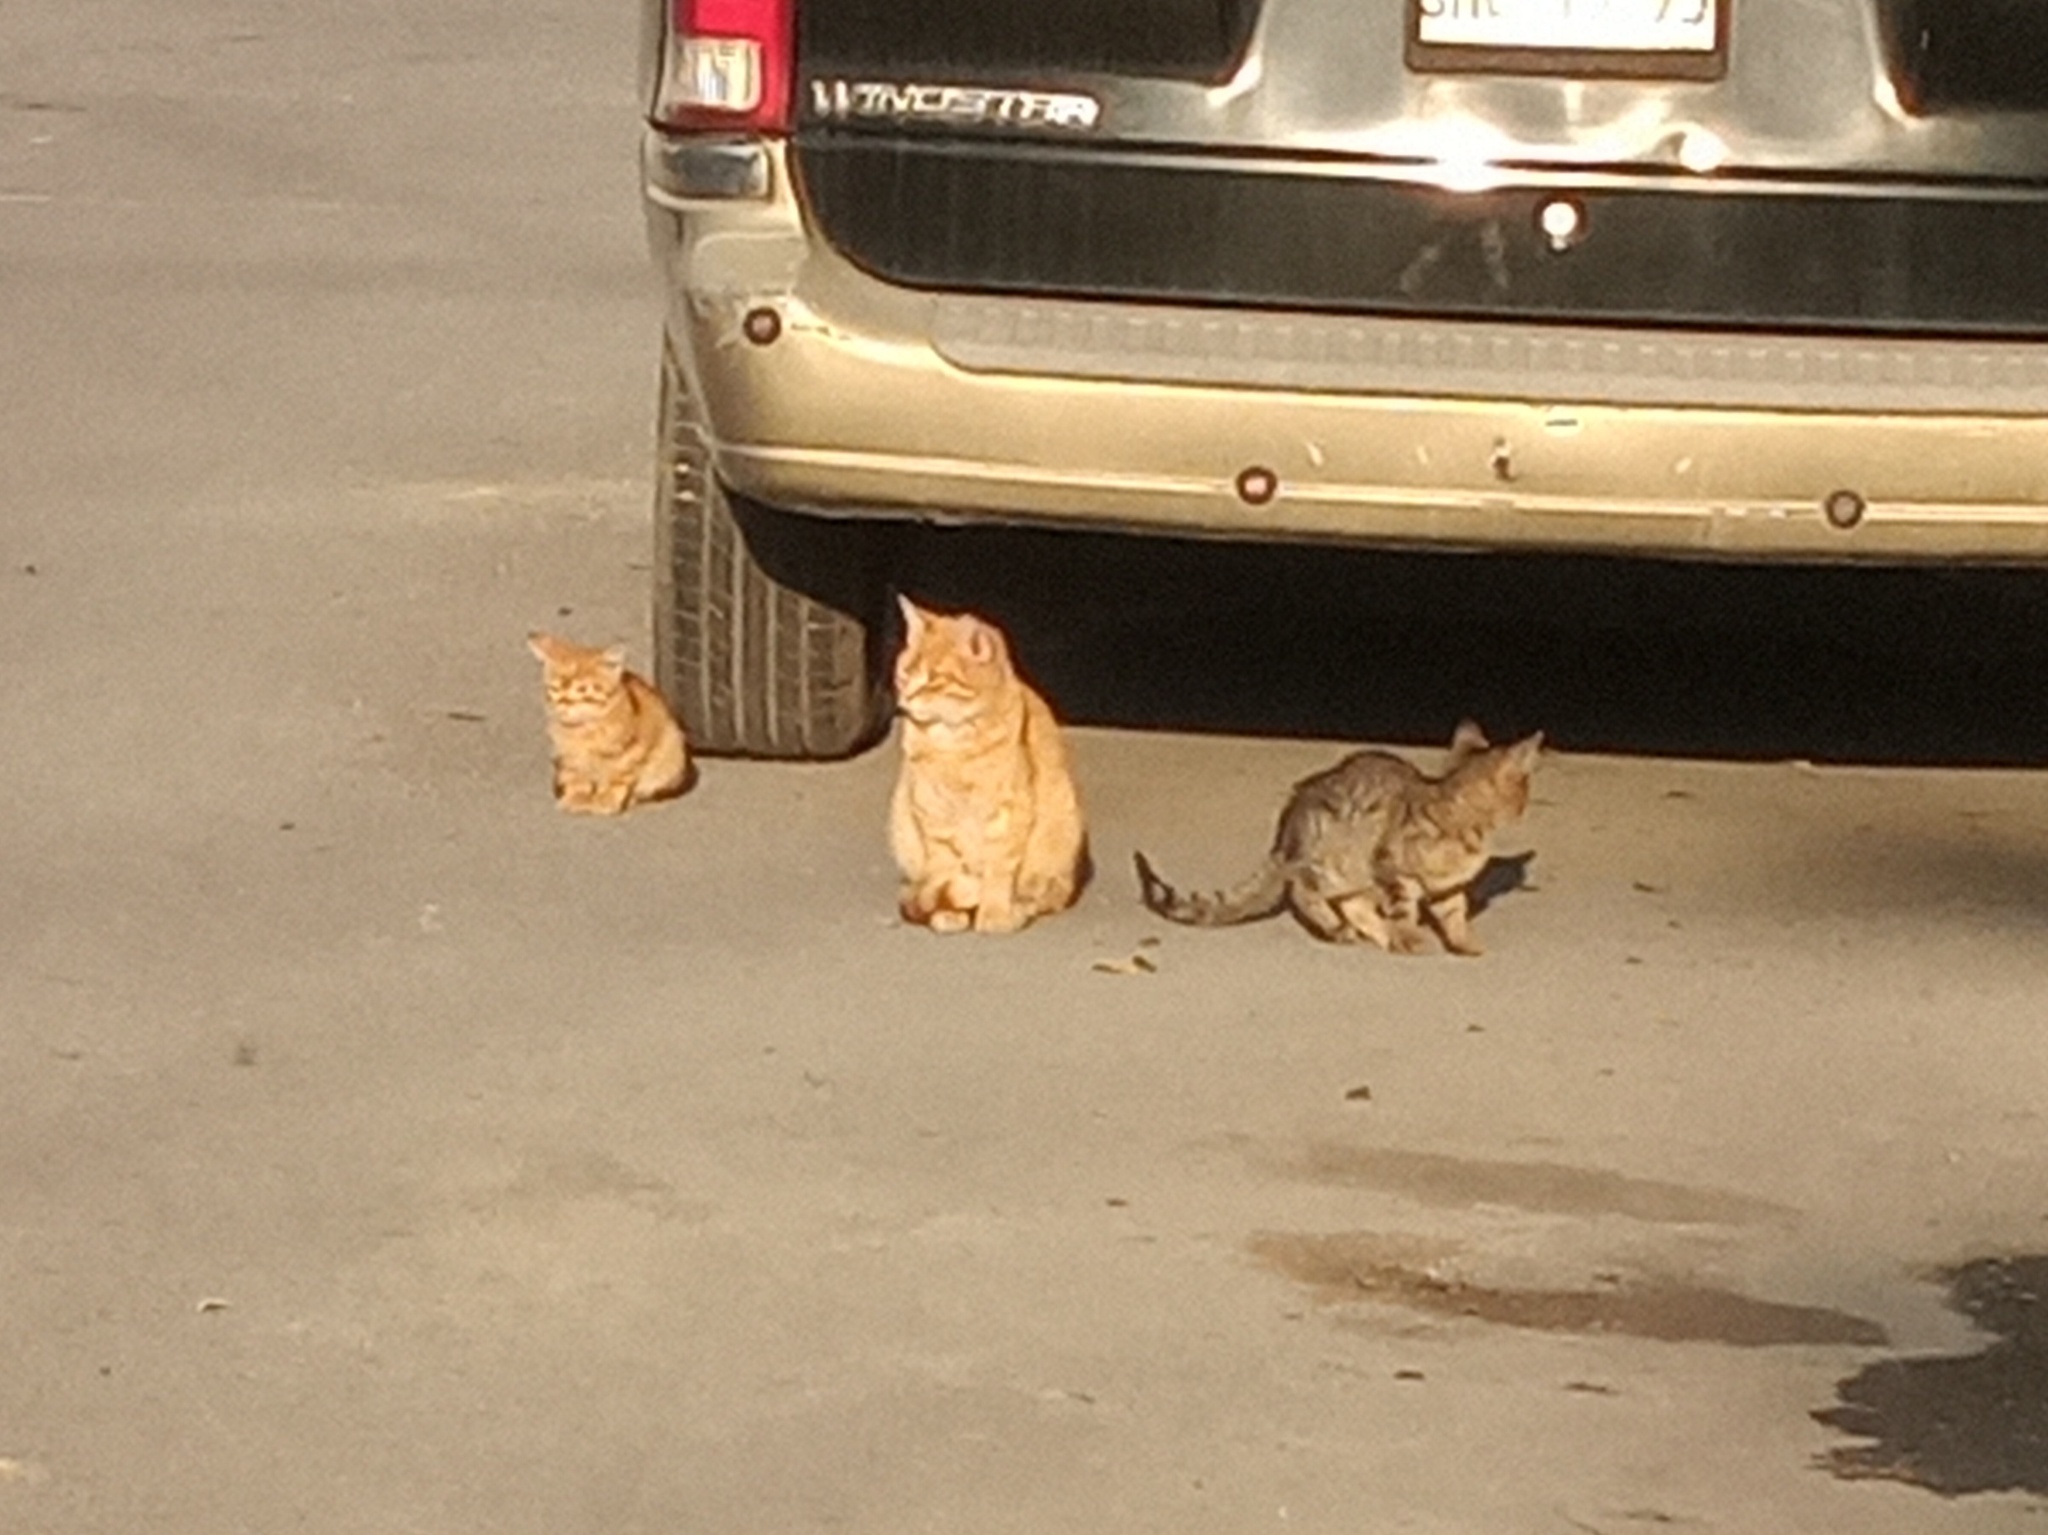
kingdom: Animalia
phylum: Chordata
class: Mammalia
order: Carnivora
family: Felidae
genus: Felis
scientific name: Felis catus
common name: Domestic cat
